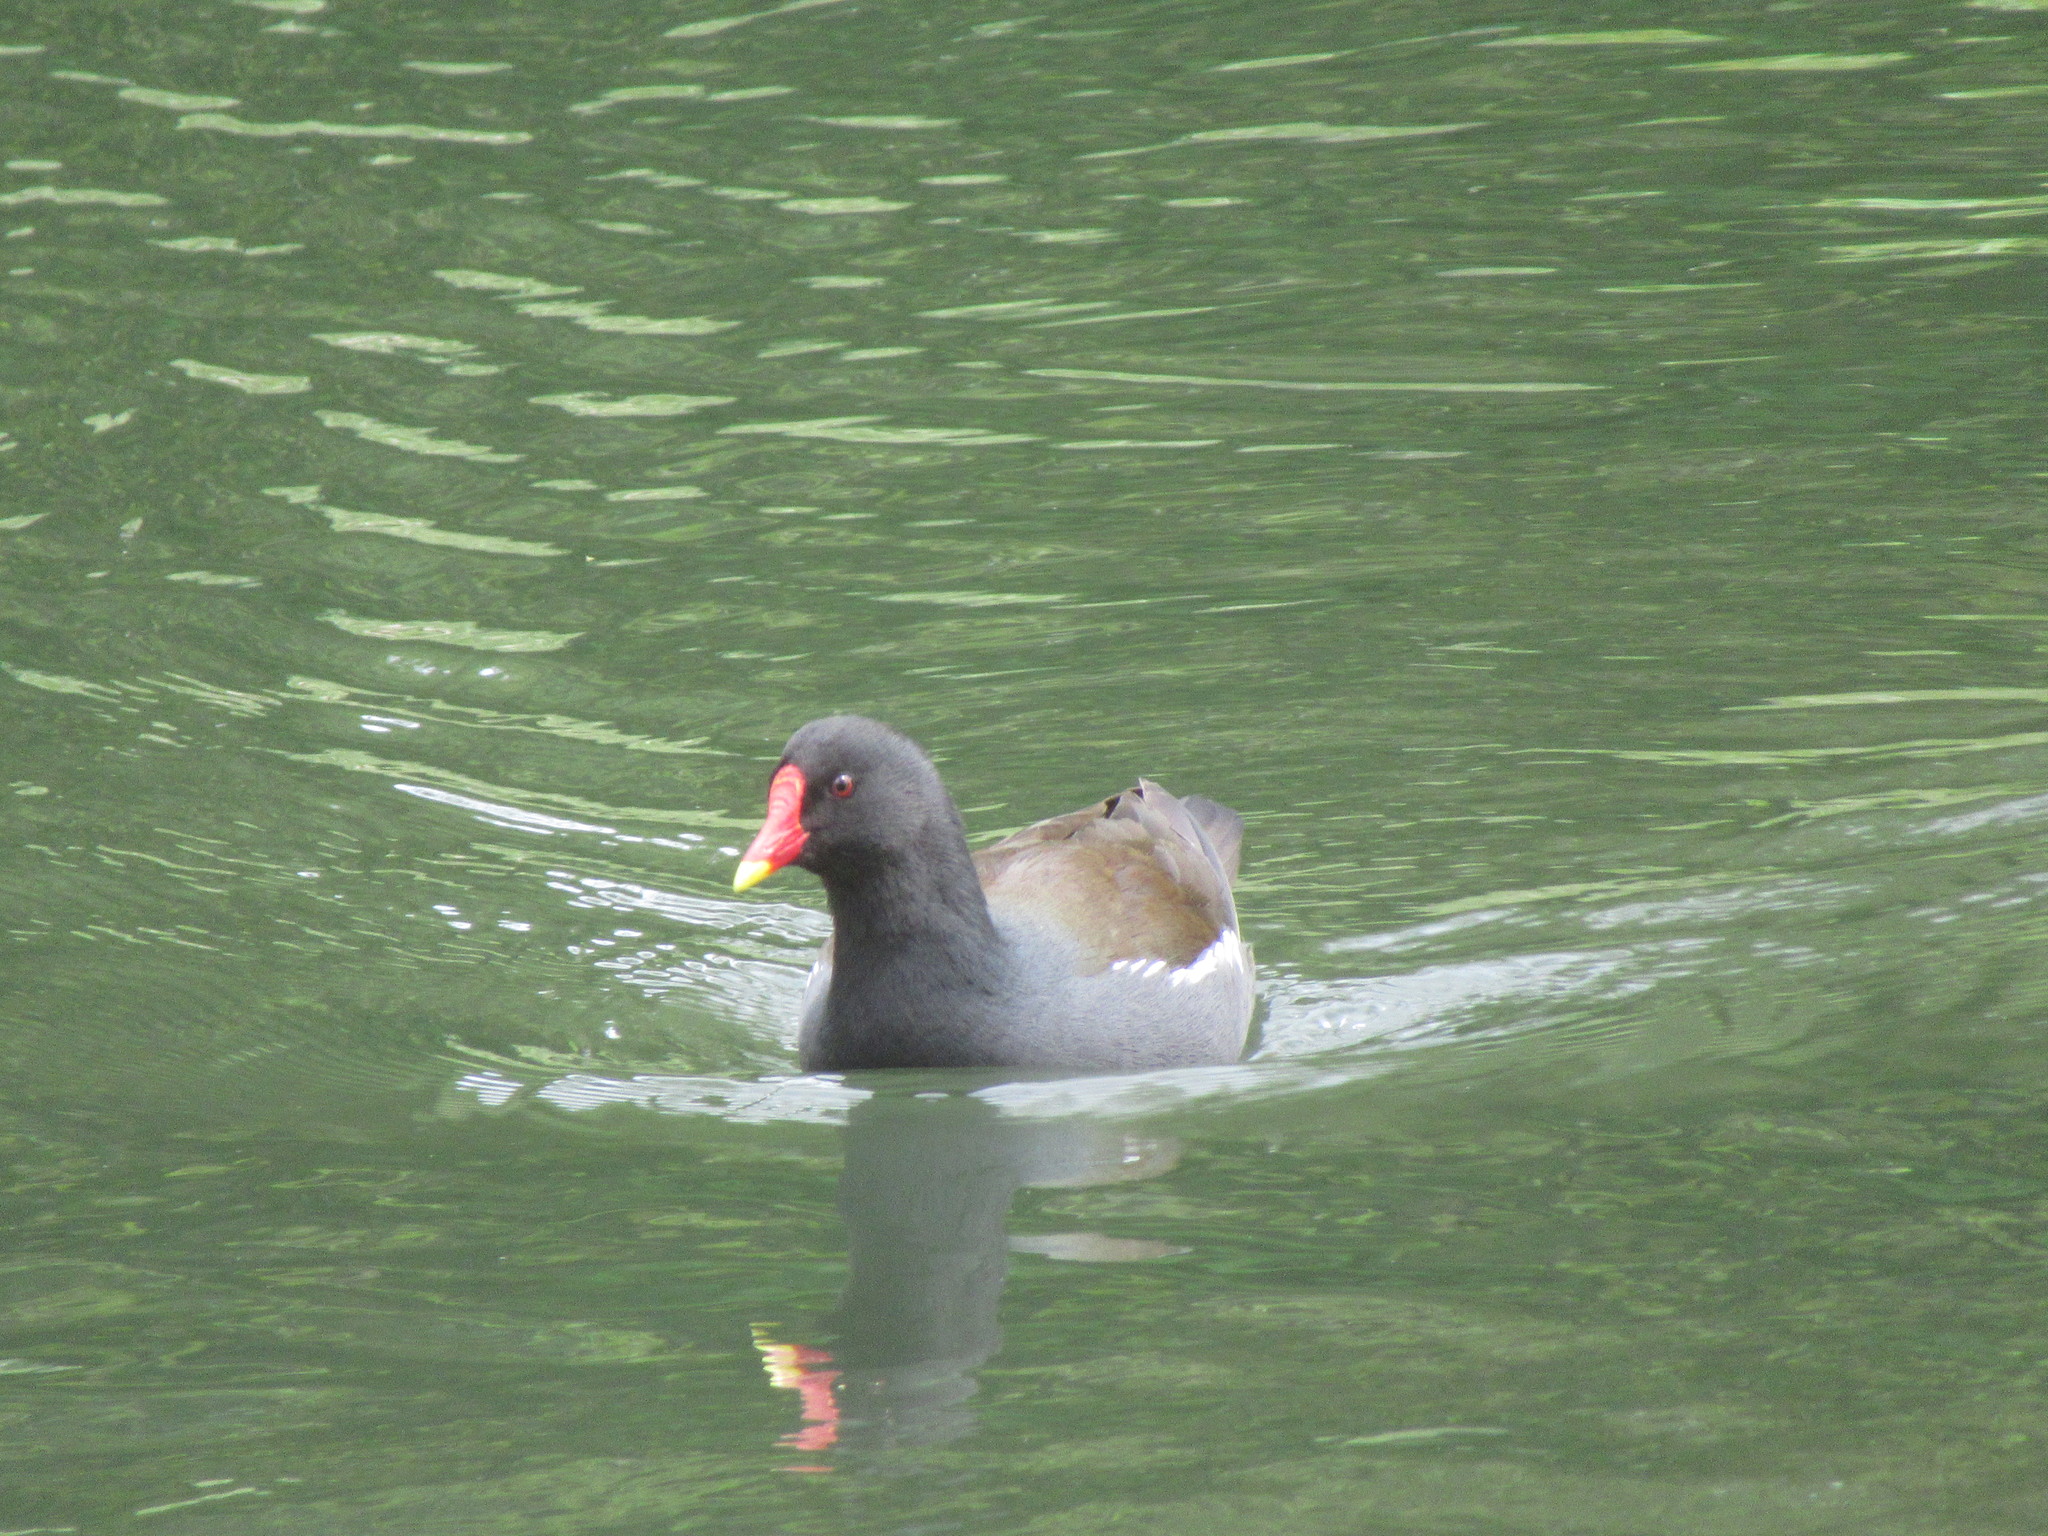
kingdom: Animalia
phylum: Chordata
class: Aves
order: Gruiformes
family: Rallidae
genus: Gallinula
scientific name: Gallinula chloropus
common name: Common moorhen
